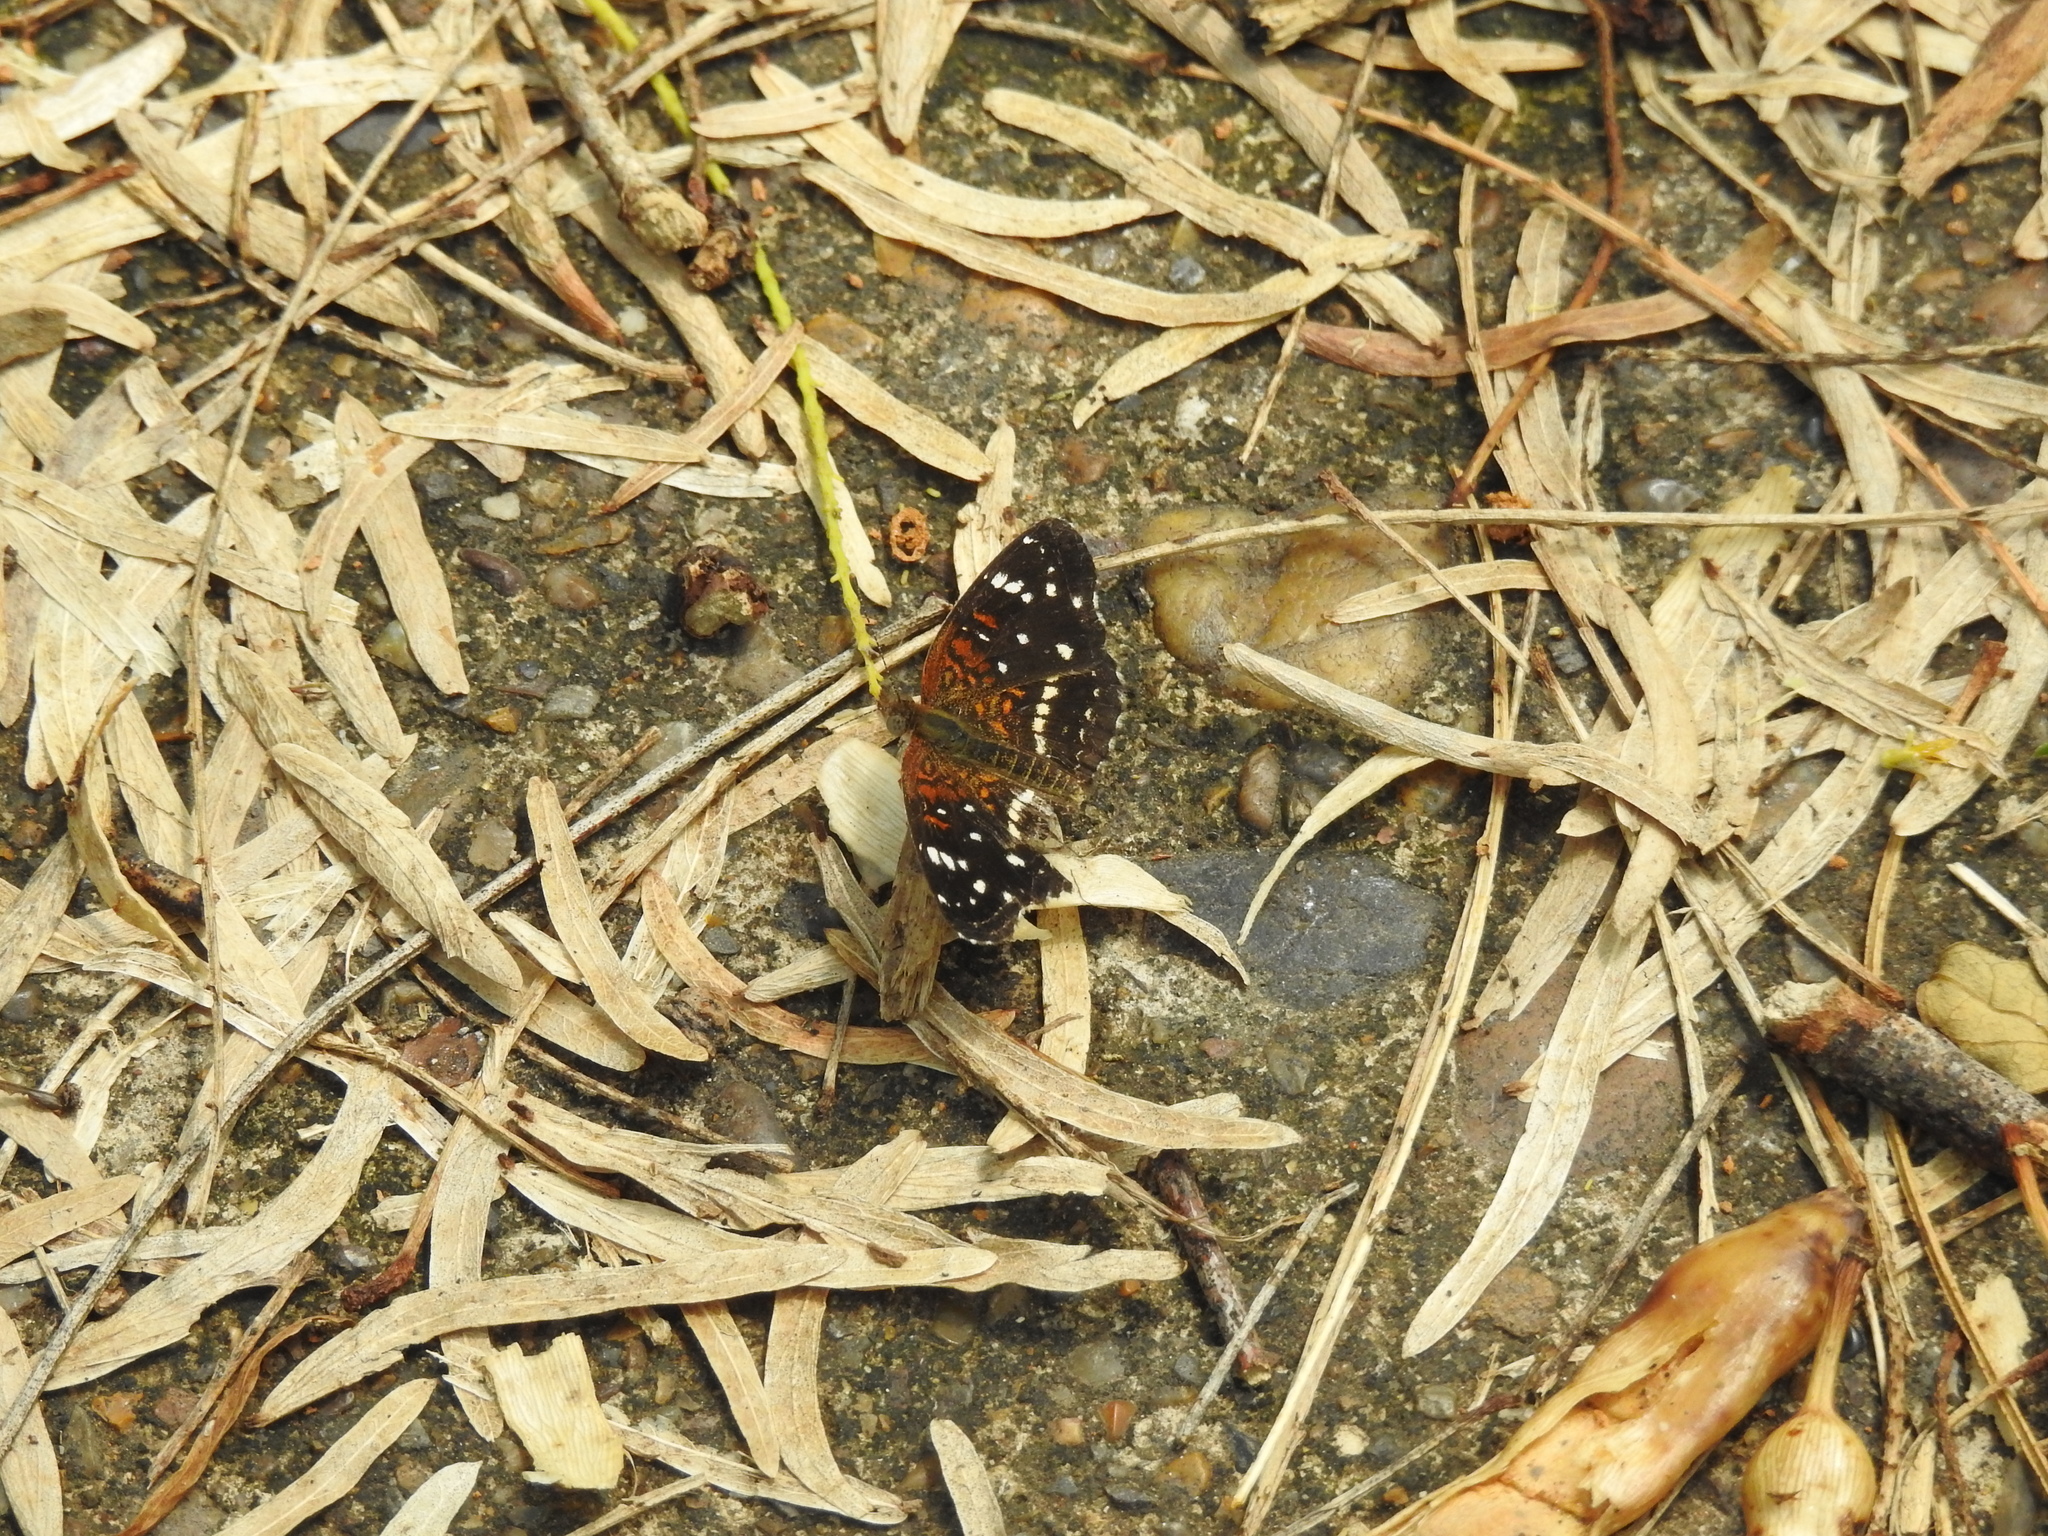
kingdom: Animalia
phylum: Arthropoda
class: Insecta
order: Lepidoptera
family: Nymphalidae
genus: Anthanassa
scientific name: Anthanassa texana
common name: Texan crescent
